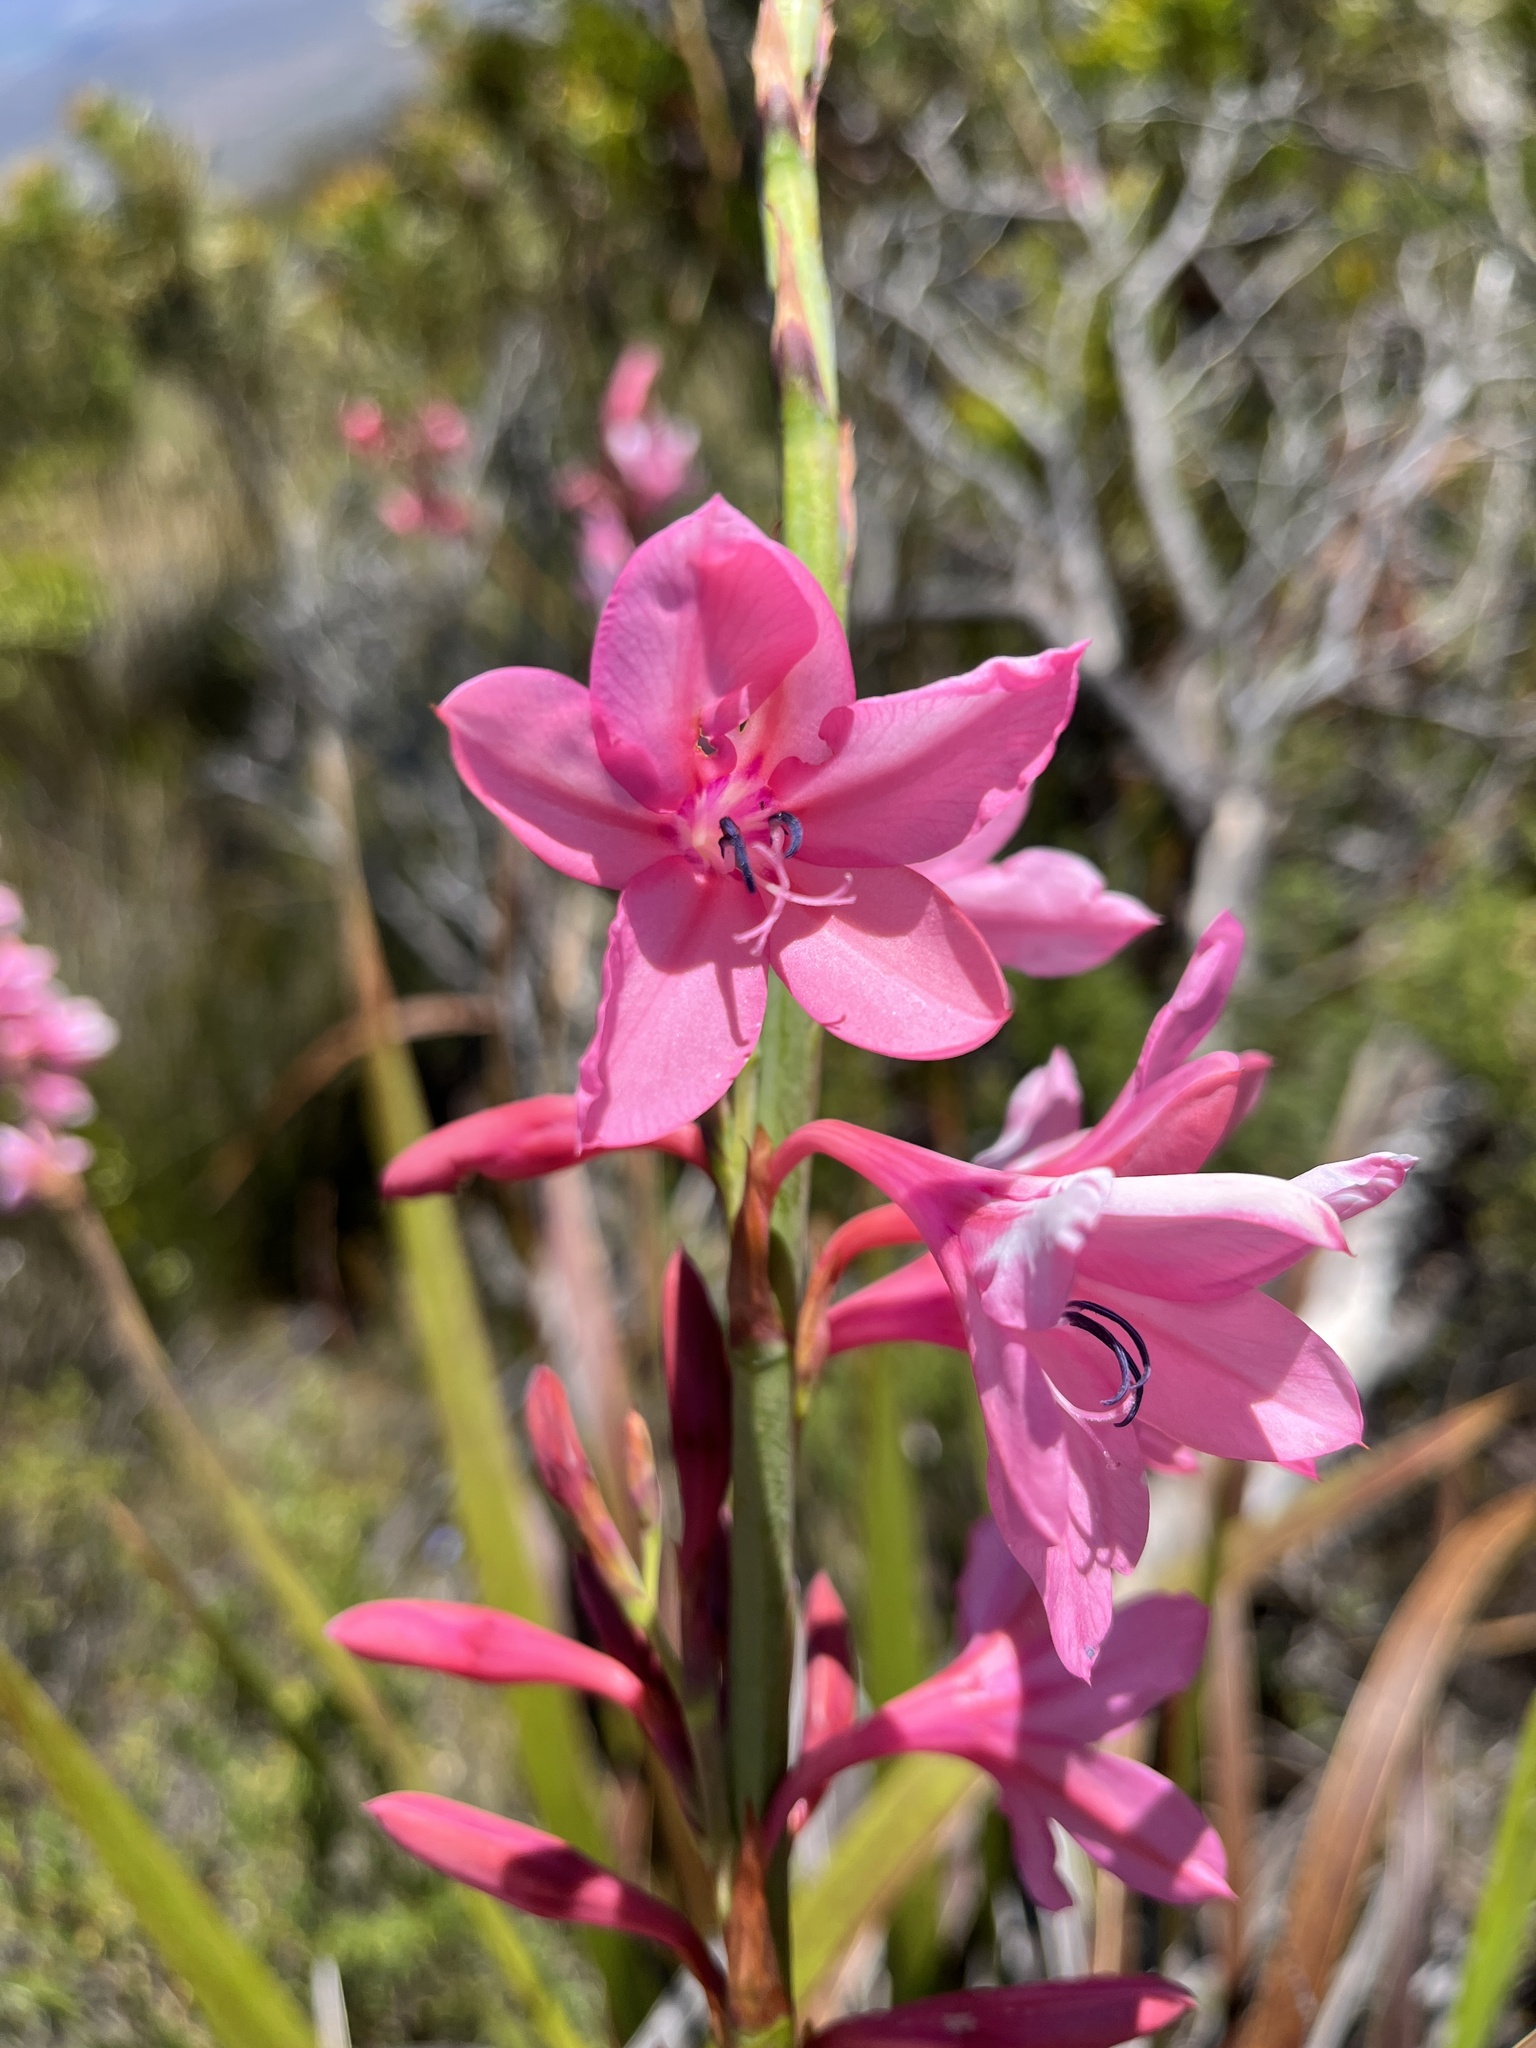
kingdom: Plantae
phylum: Tracheophyta
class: Liliopsida
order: Asparagales
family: Iridaceae
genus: Watsonia
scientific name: Watsonia borbonica
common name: Bugle-lily
